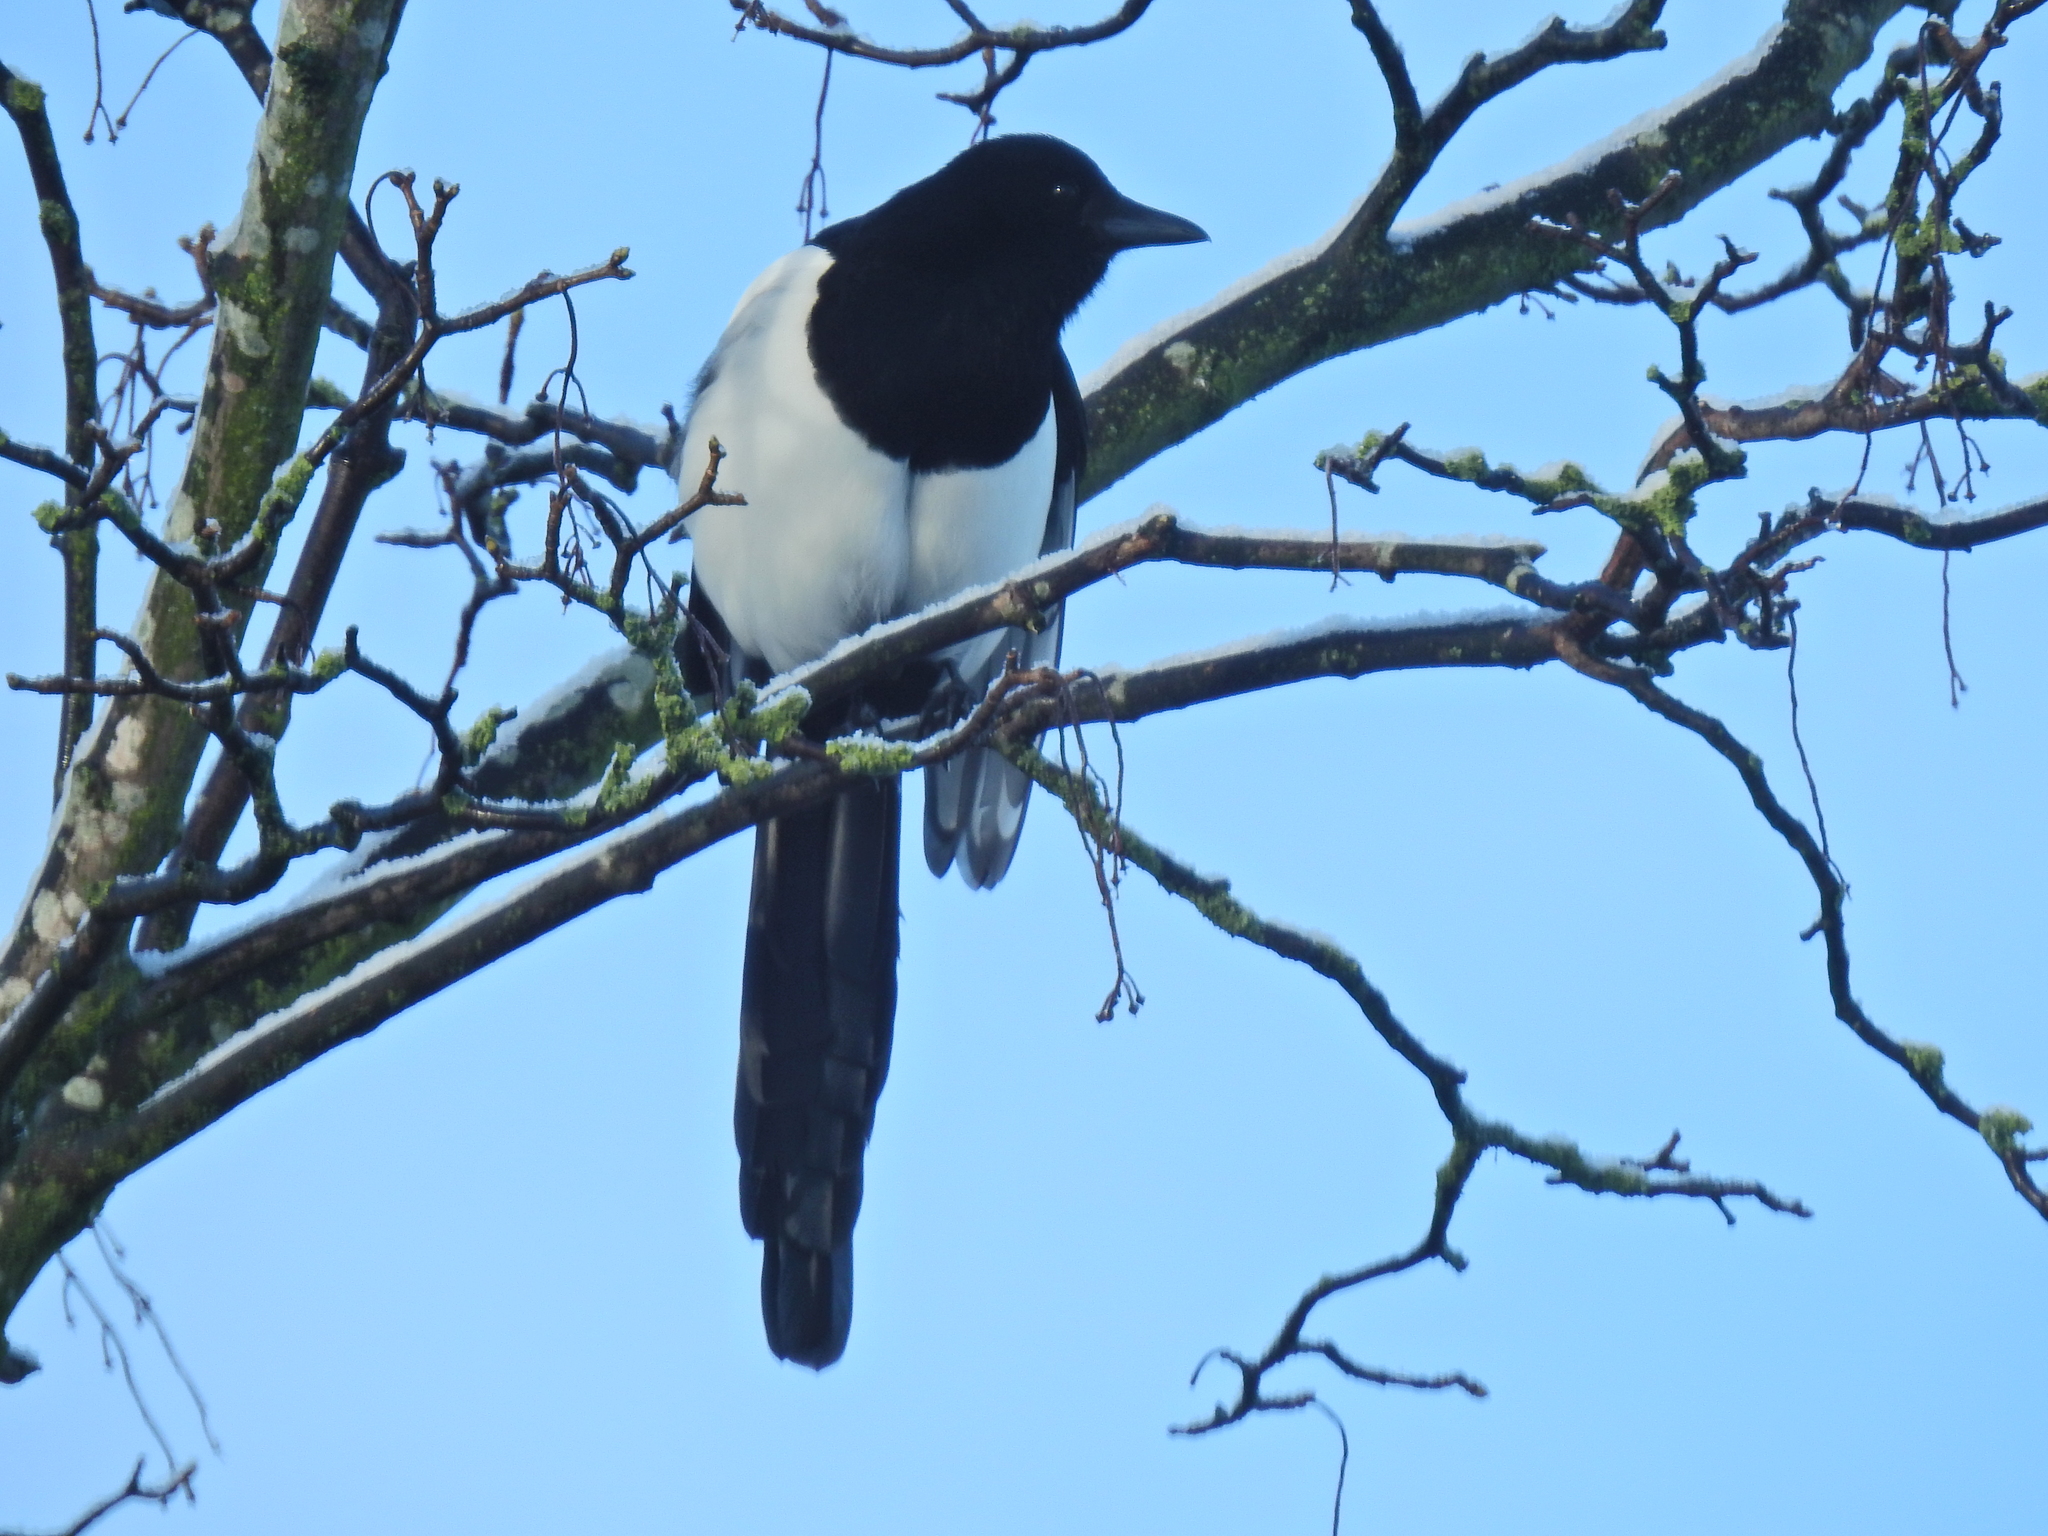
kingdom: Animalia
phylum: Chordata
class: Aves
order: Passeriformes
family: Corvidae
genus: Pica
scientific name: Pica pica
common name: Eurasian magpie
